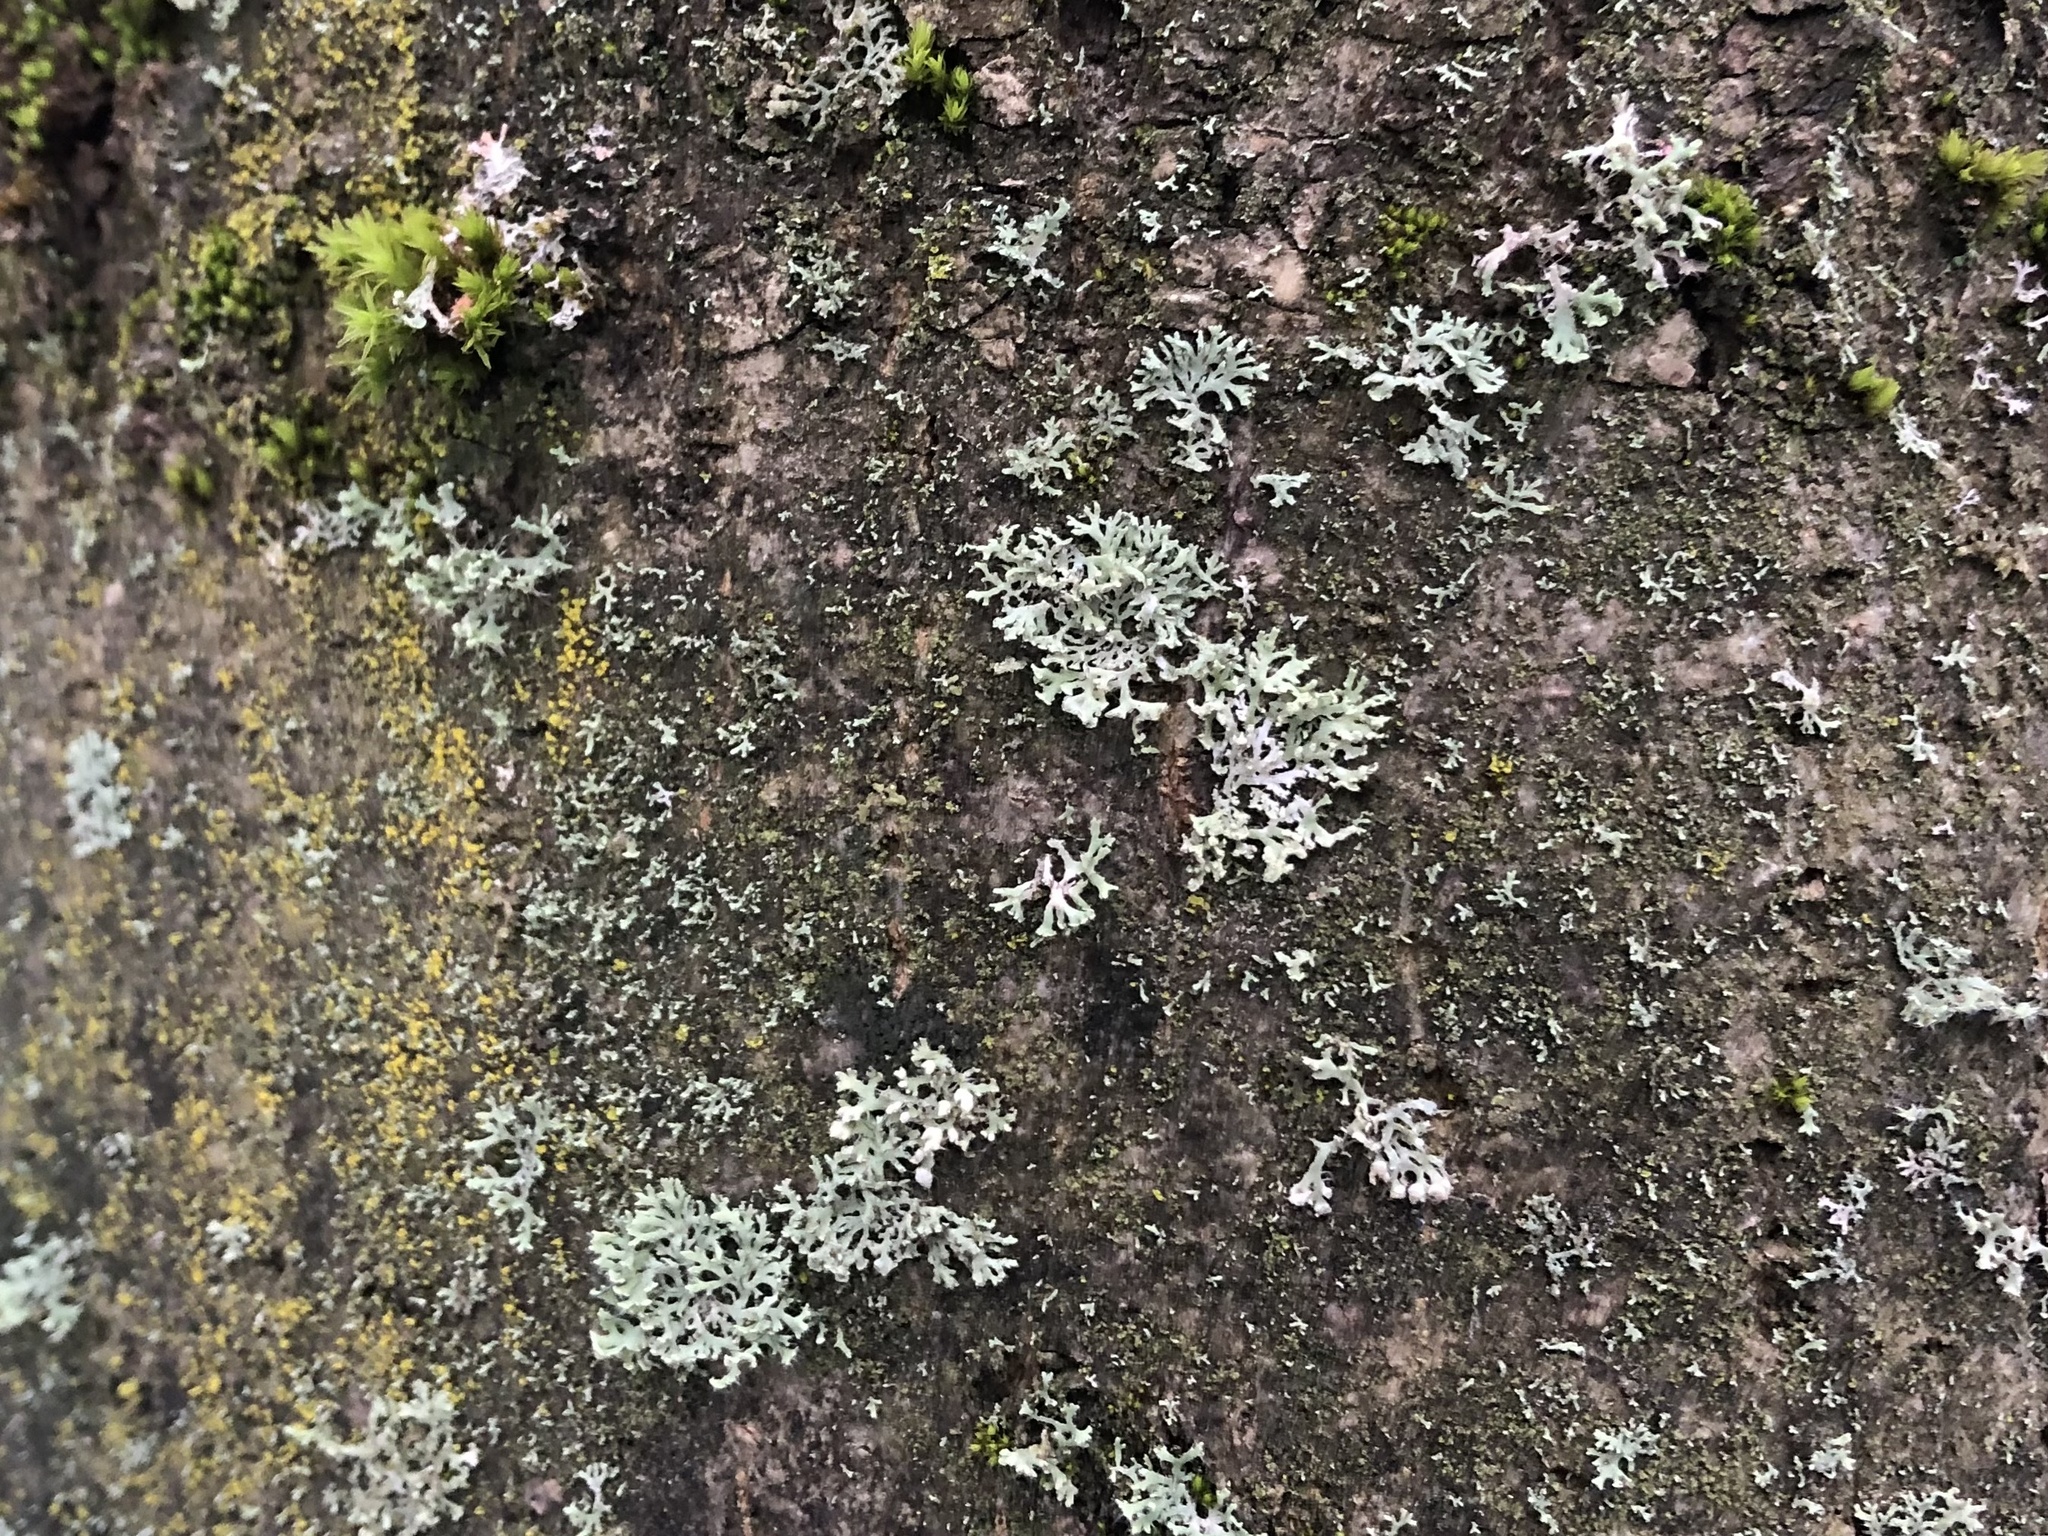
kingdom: Fungi
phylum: Ascomycota
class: Lecanoromycetes
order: Caliciales
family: Physciaceae
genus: Physcia
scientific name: Physcia adscendens
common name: Hooded rosette lichen
